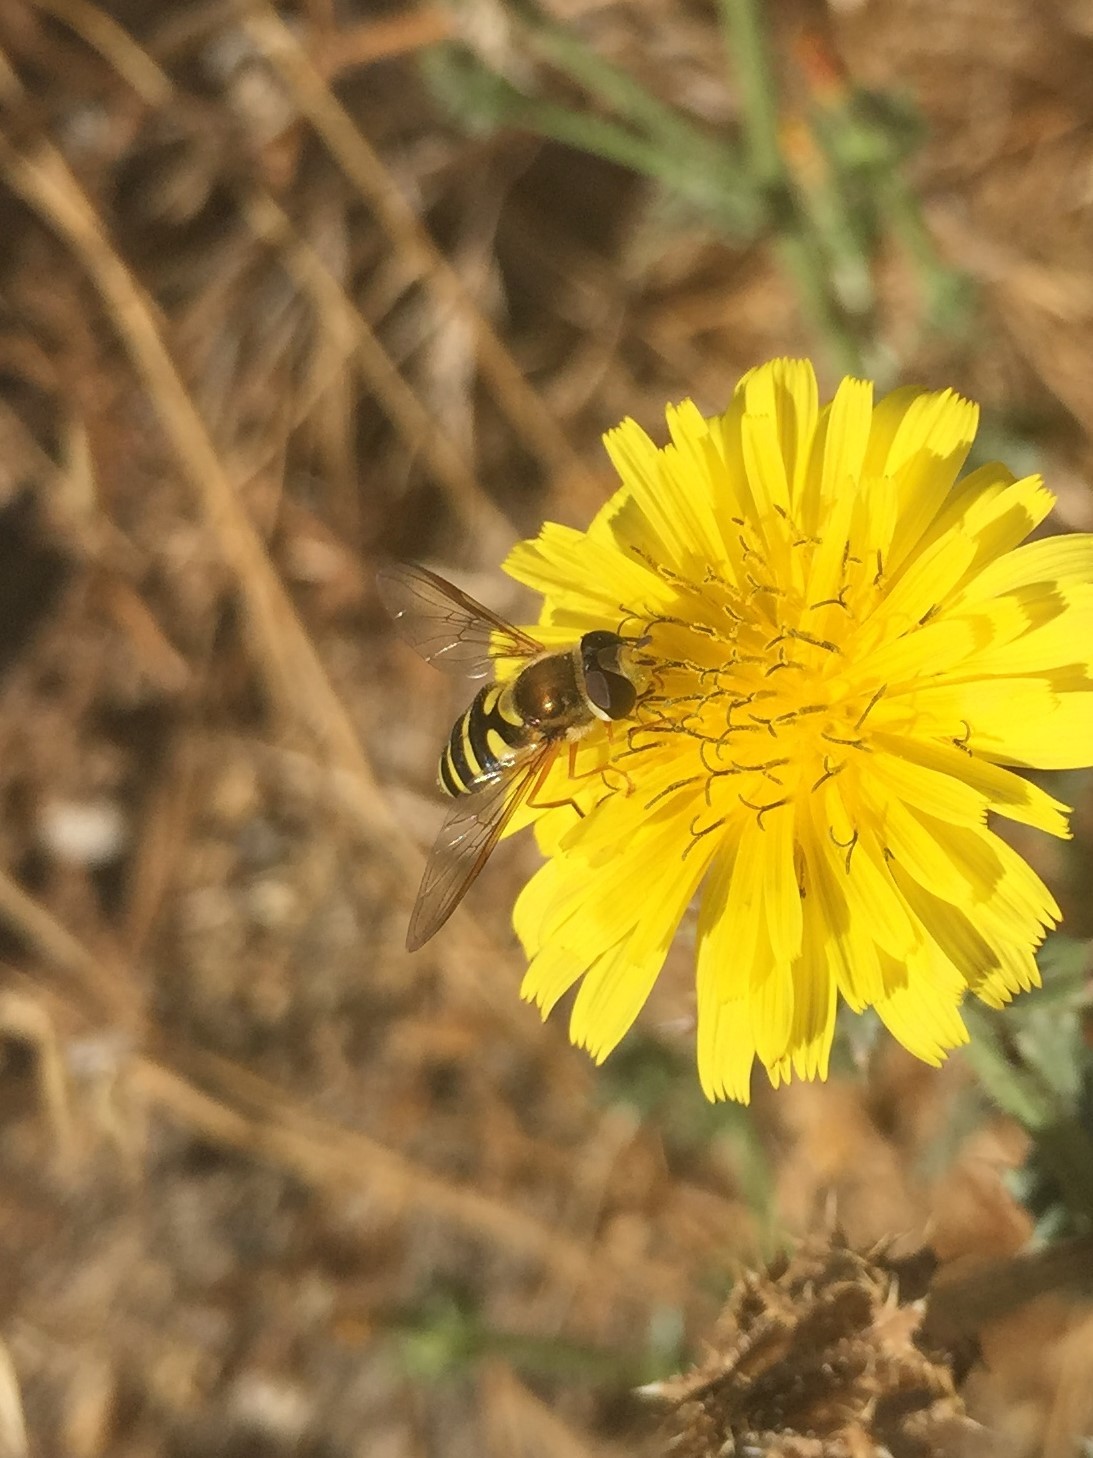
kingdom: Animalia
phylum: Arthropoda
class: Insecta
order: Diptera
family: Syrphidae
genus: Syrphus
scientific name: Syrphus opinator
